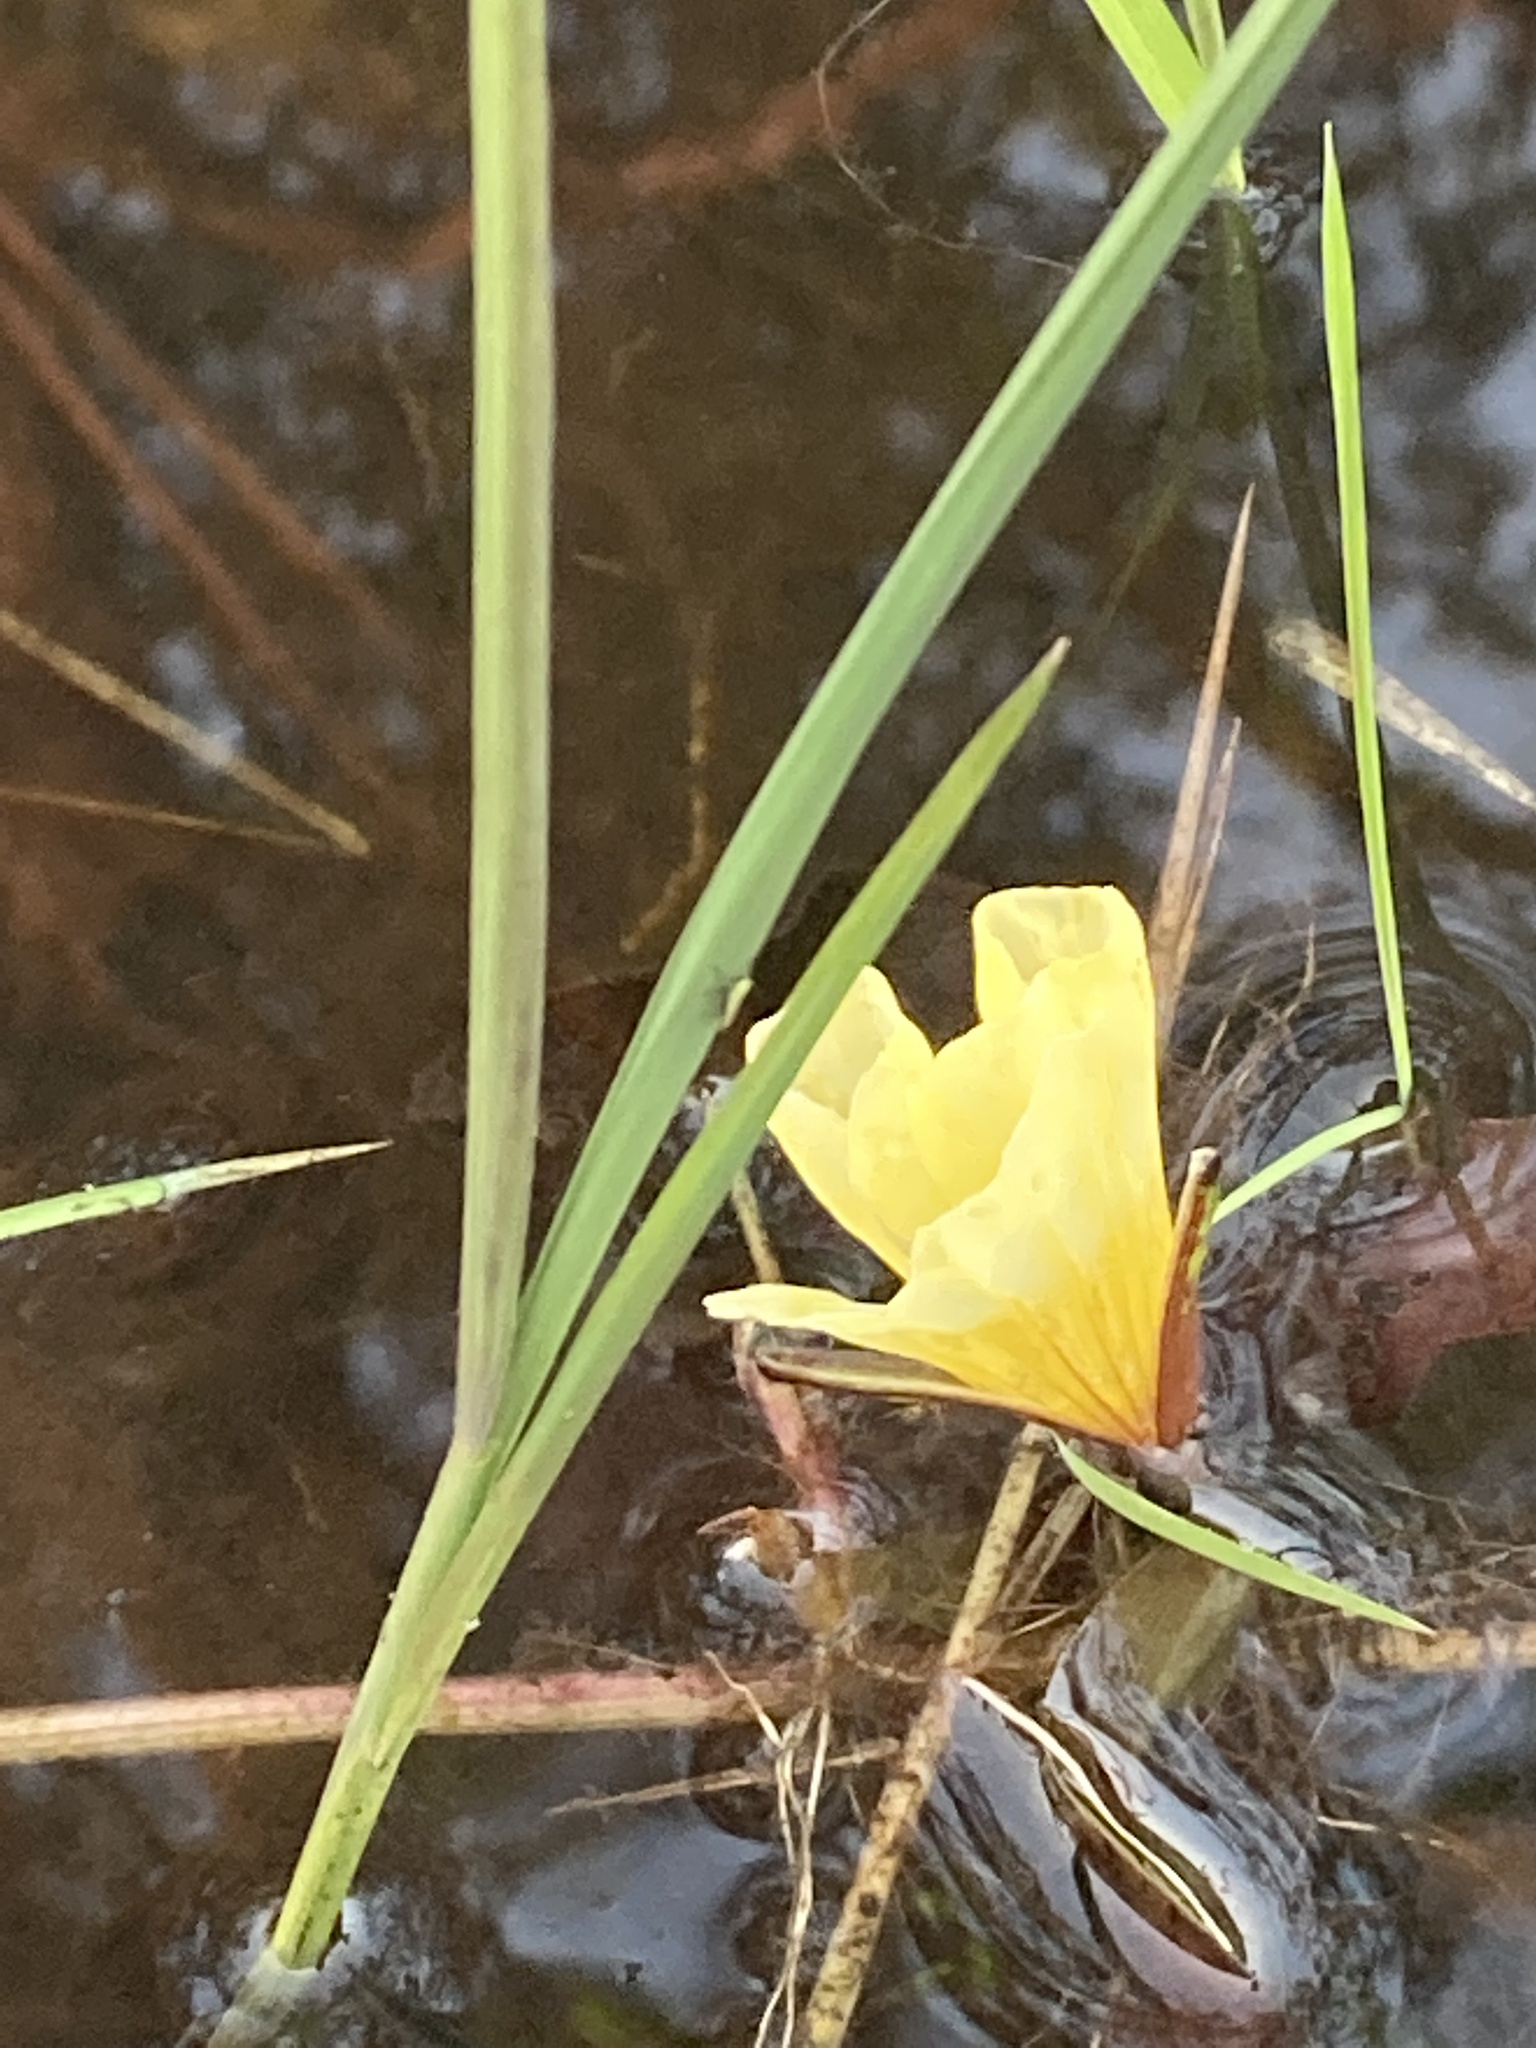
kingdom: Plantae
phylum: Tracheophyta
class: Liliopsida
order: Alismatales
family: Hydrocharitaceae
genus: Ottelia
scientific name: Ottelia ulvifolia
